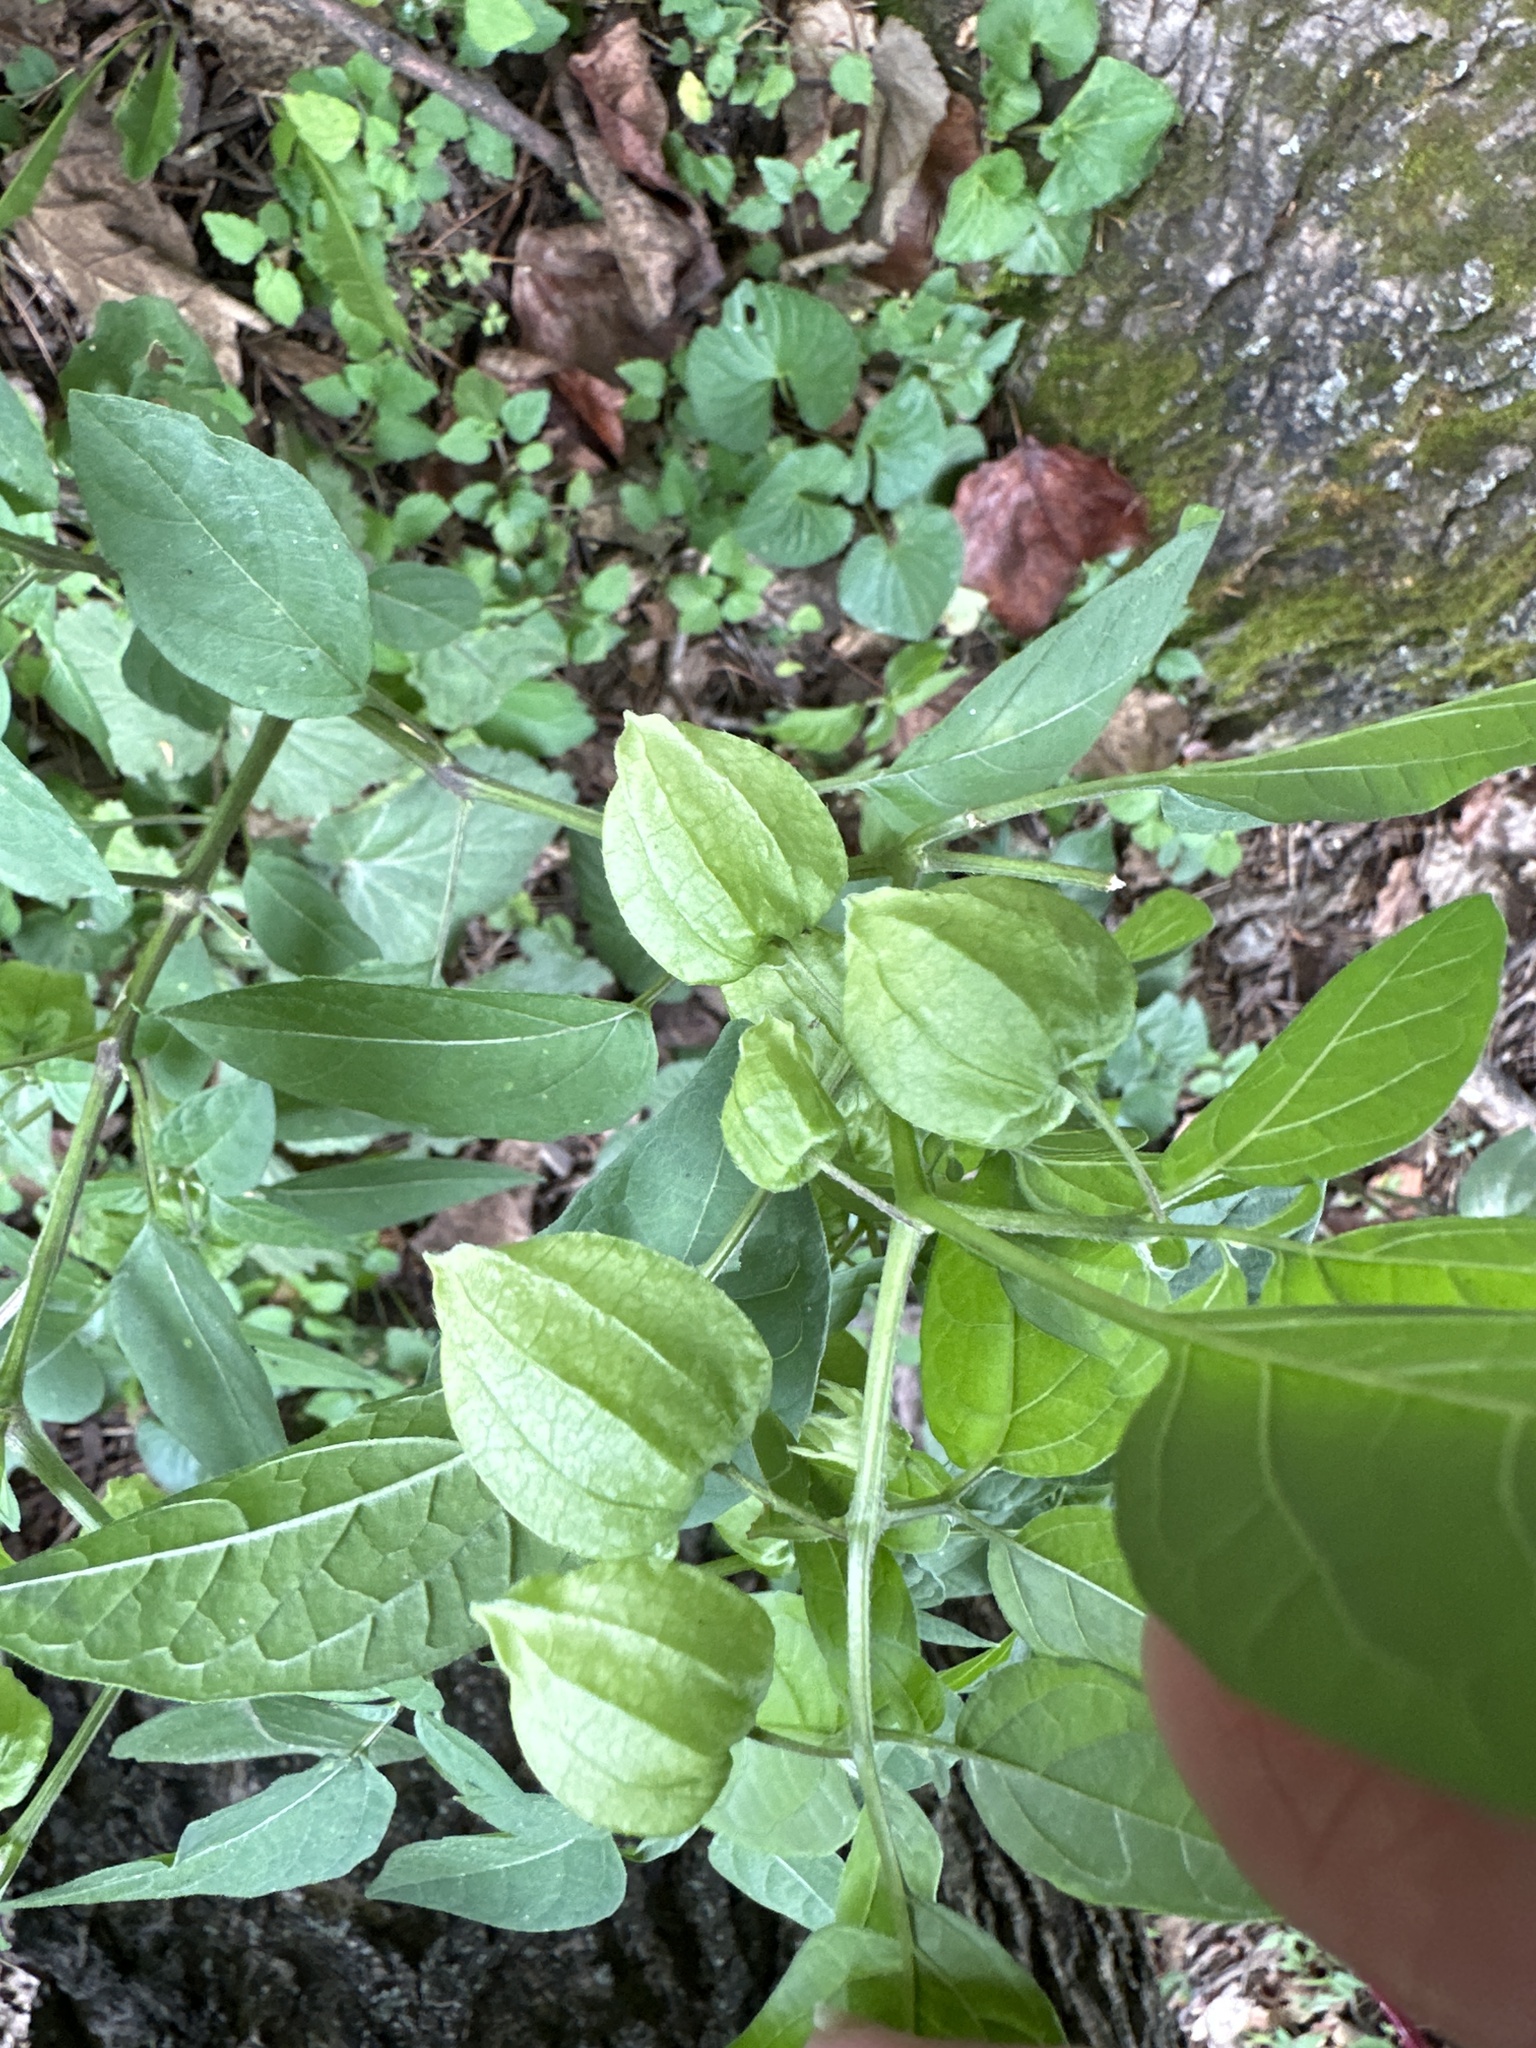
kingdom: Plantae
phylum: Tracheophyta
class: Magnoliopsida
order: Solanales
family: Solanaceae
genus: Physalis
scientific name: Physalis longifolia
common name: Common ground-cherry
